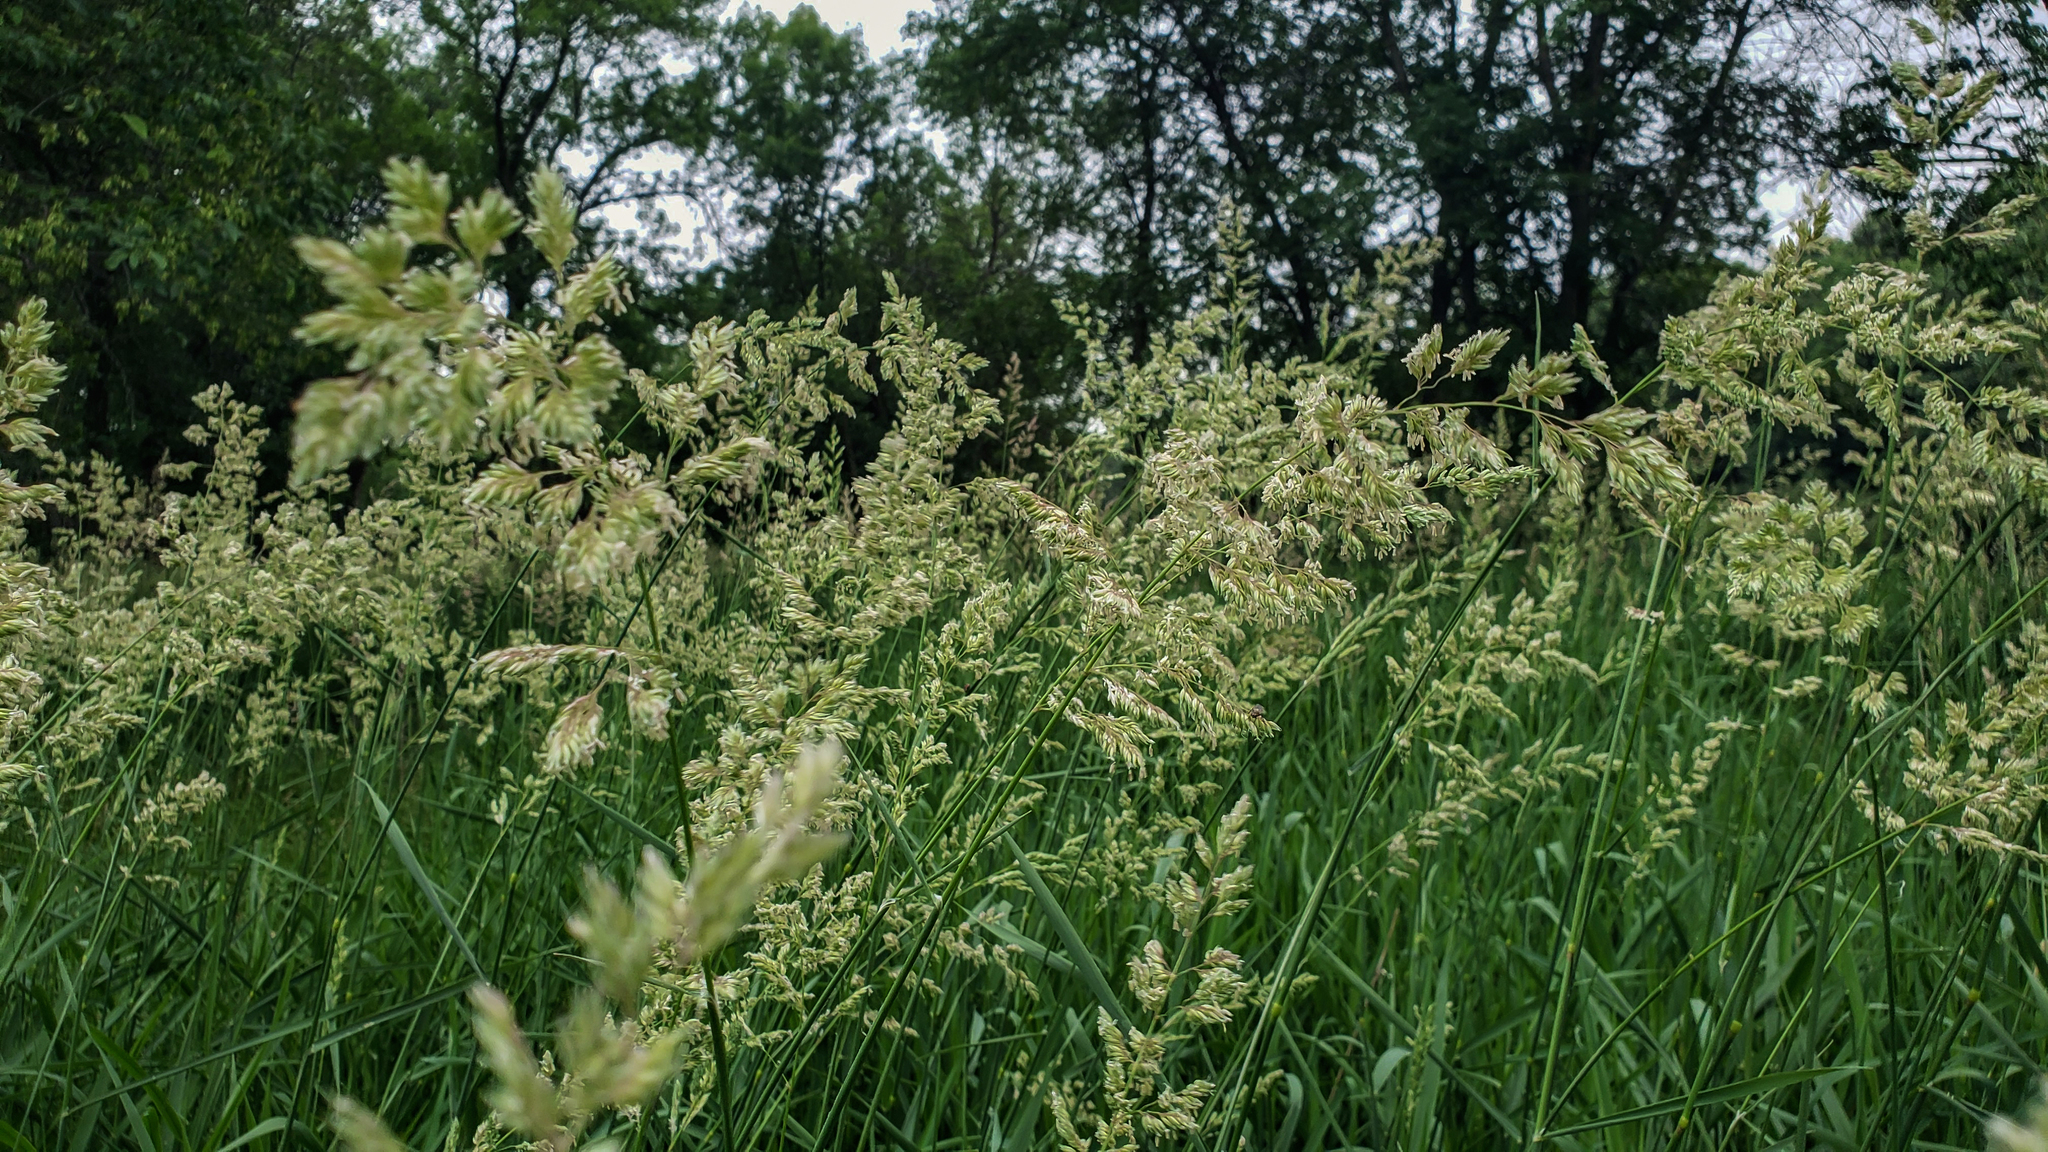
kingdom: Plantae
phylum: Tracheophyta
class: Liliopsida
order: Poales
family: Poaceae
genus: Phalaris
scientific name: Phalaris arundinacea
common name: Reed canary-grass
